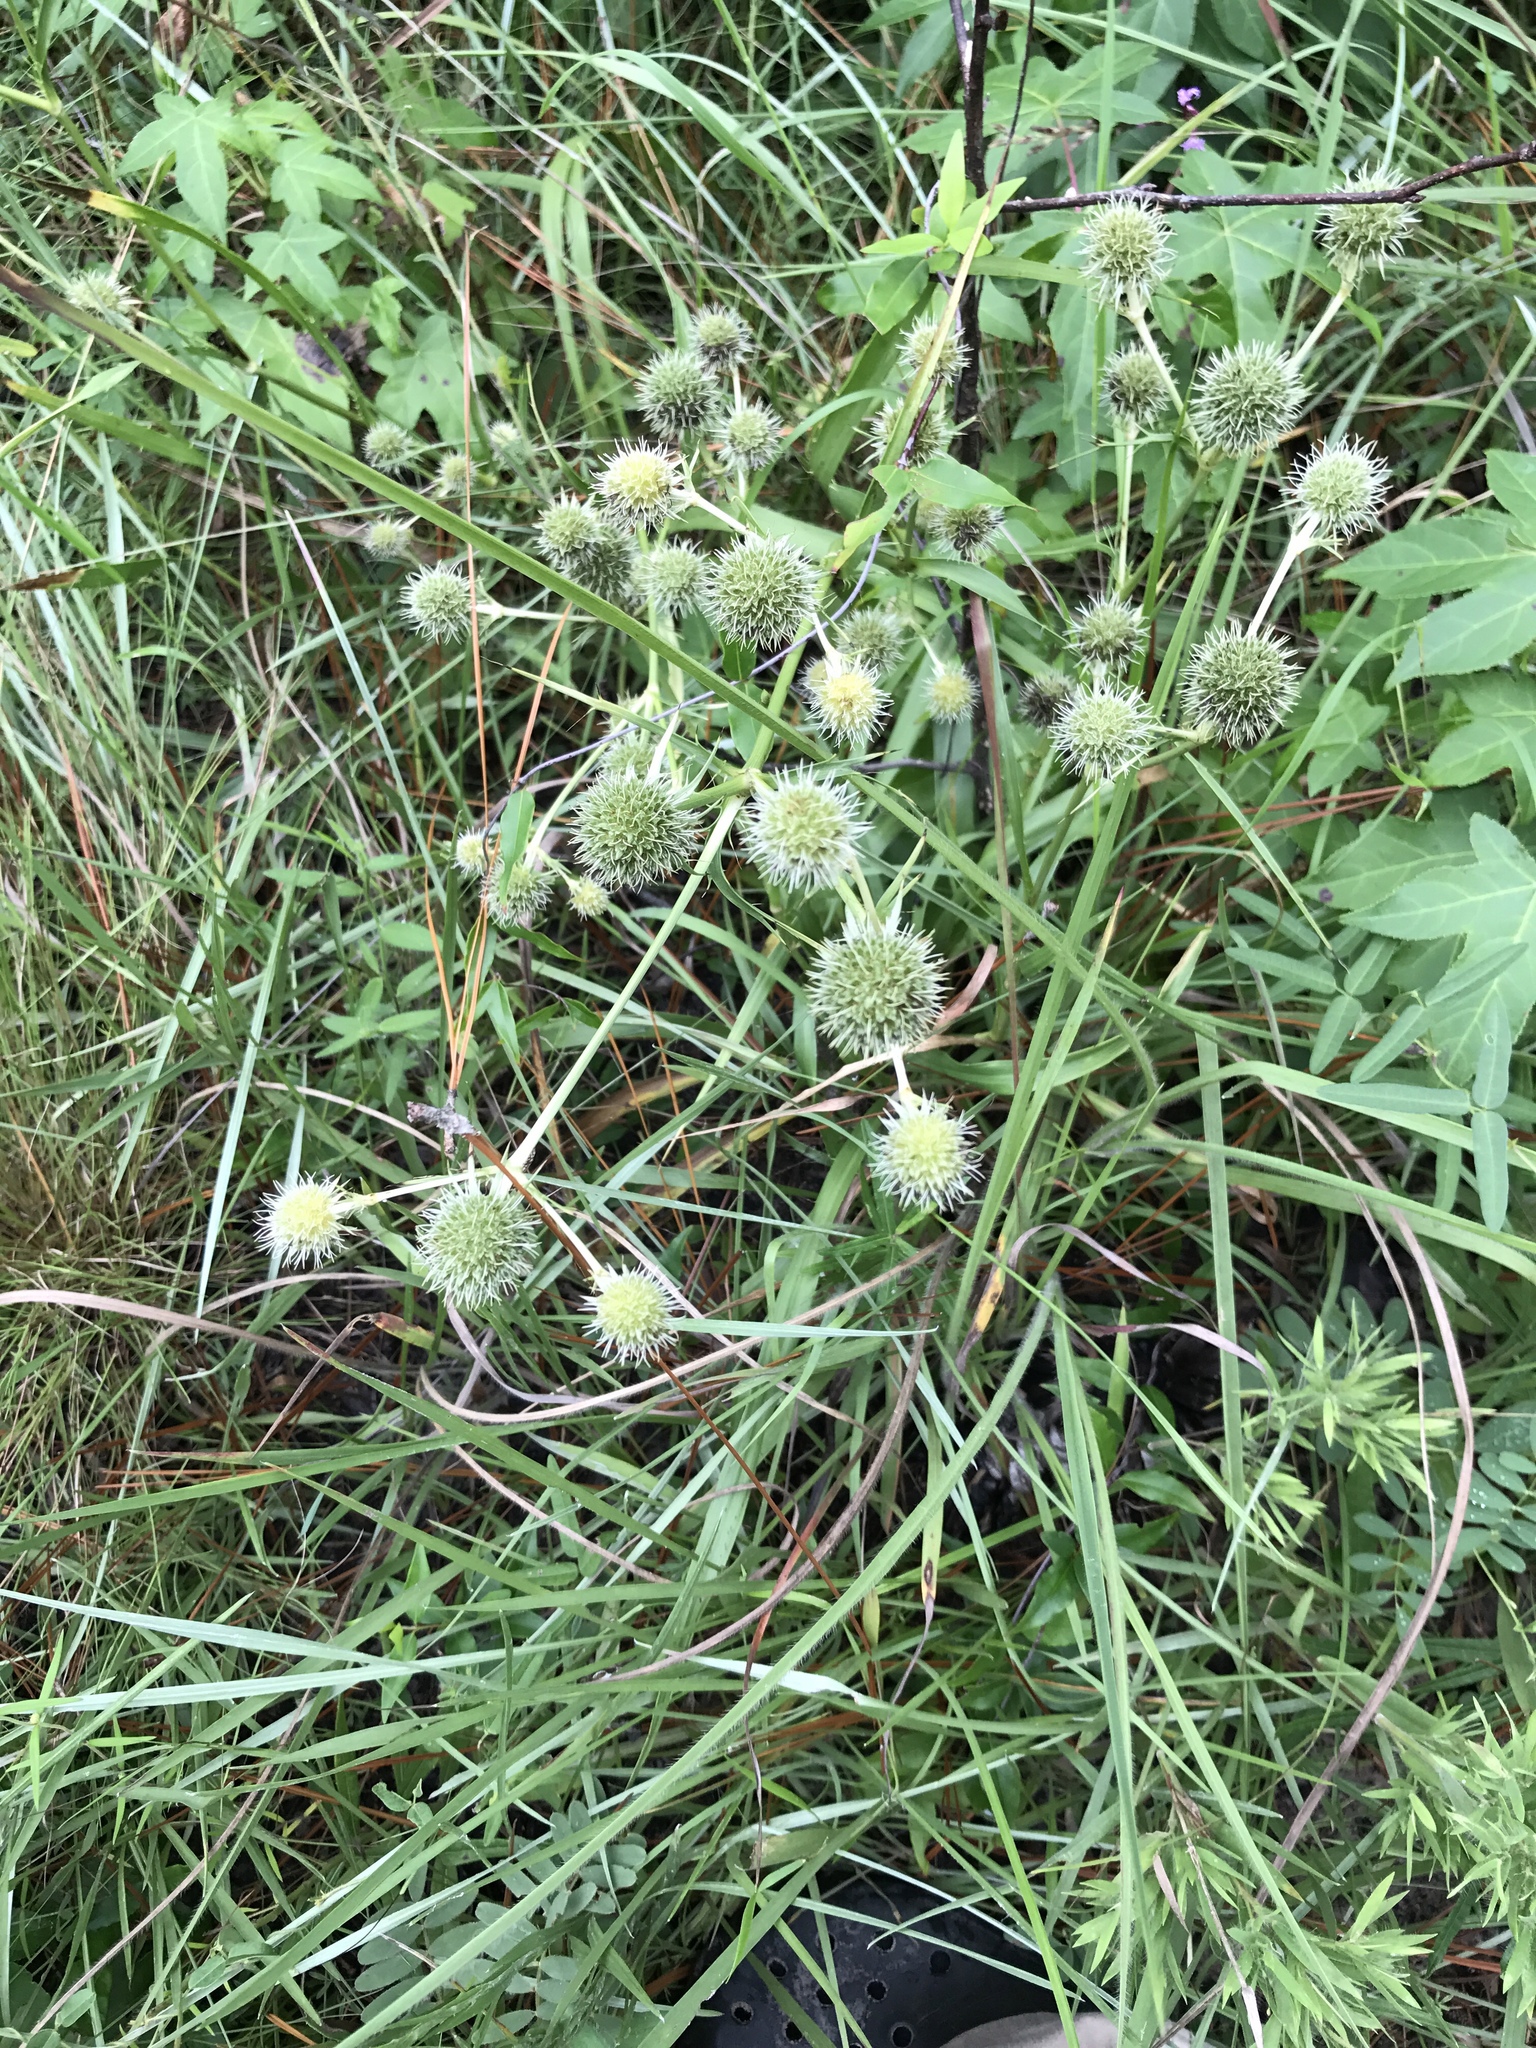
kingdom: Plantae
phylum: Tracheophyta
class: Magnoliopsida
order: Apiales
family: Apiaceae
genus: Eryngium
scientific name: Eryngium yuccifolium
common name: Button eryngo
